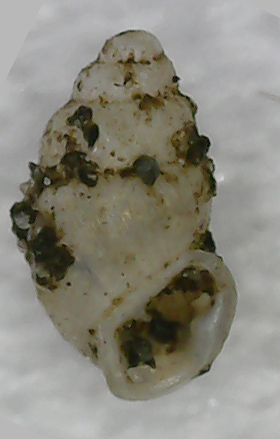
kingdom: Animalia
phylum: Mollusca
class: Gastropoda
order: Ellobiida
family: Ellobiidae
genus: Carychium
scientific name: Carychium minimum
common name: Short-toothed herald snail
